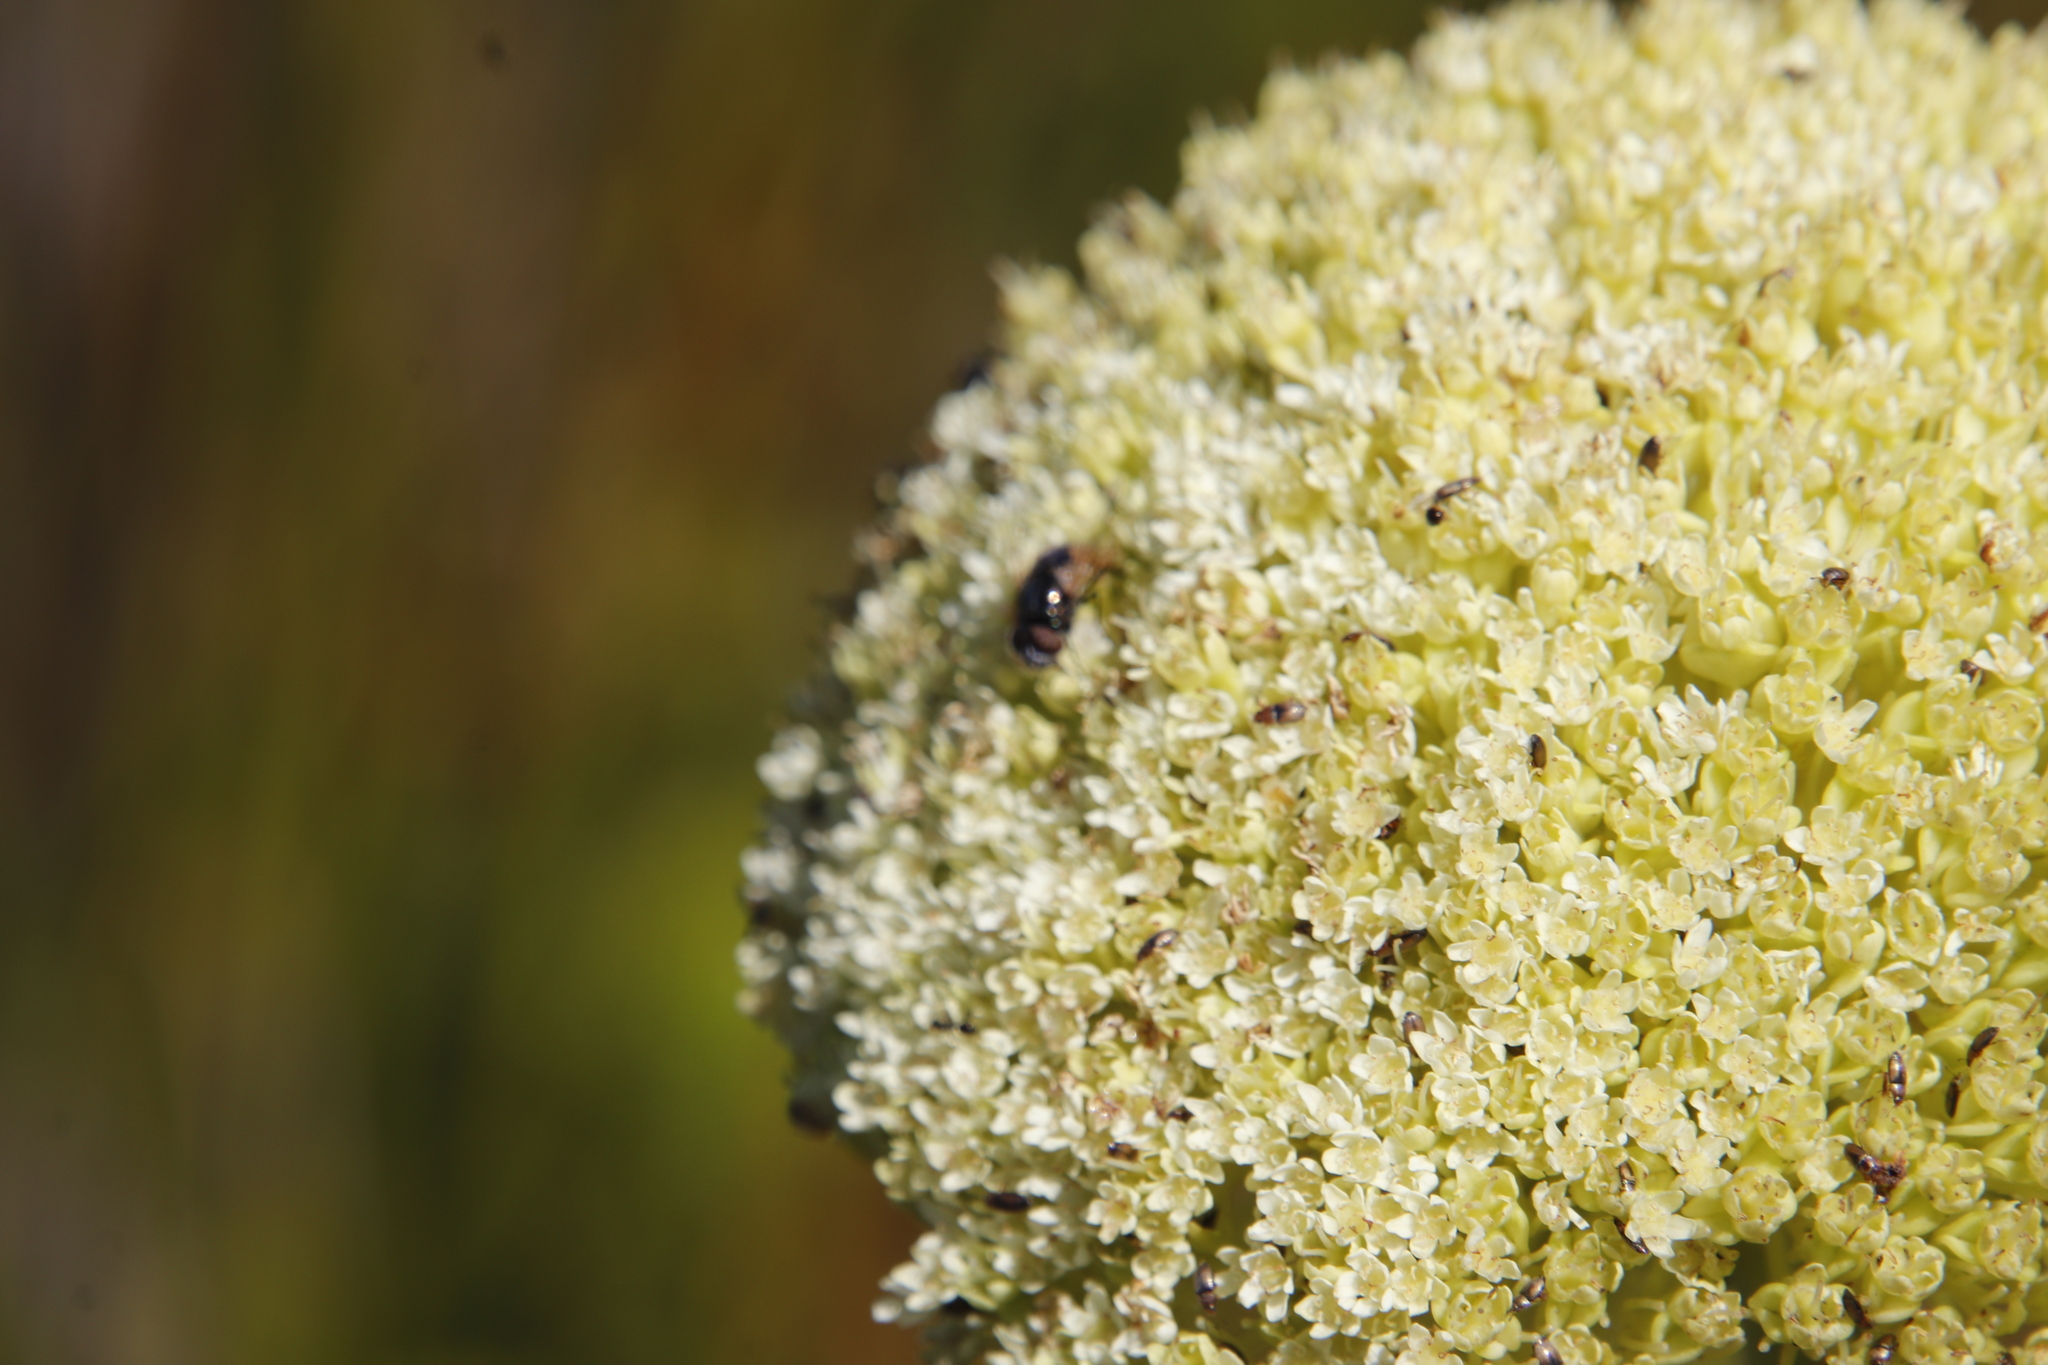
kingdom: Plantae
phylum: Tracheophyta
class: Magnoliopsida
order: Apiales
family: Apiaceae
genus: Hermas
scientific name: Hermas villosa
